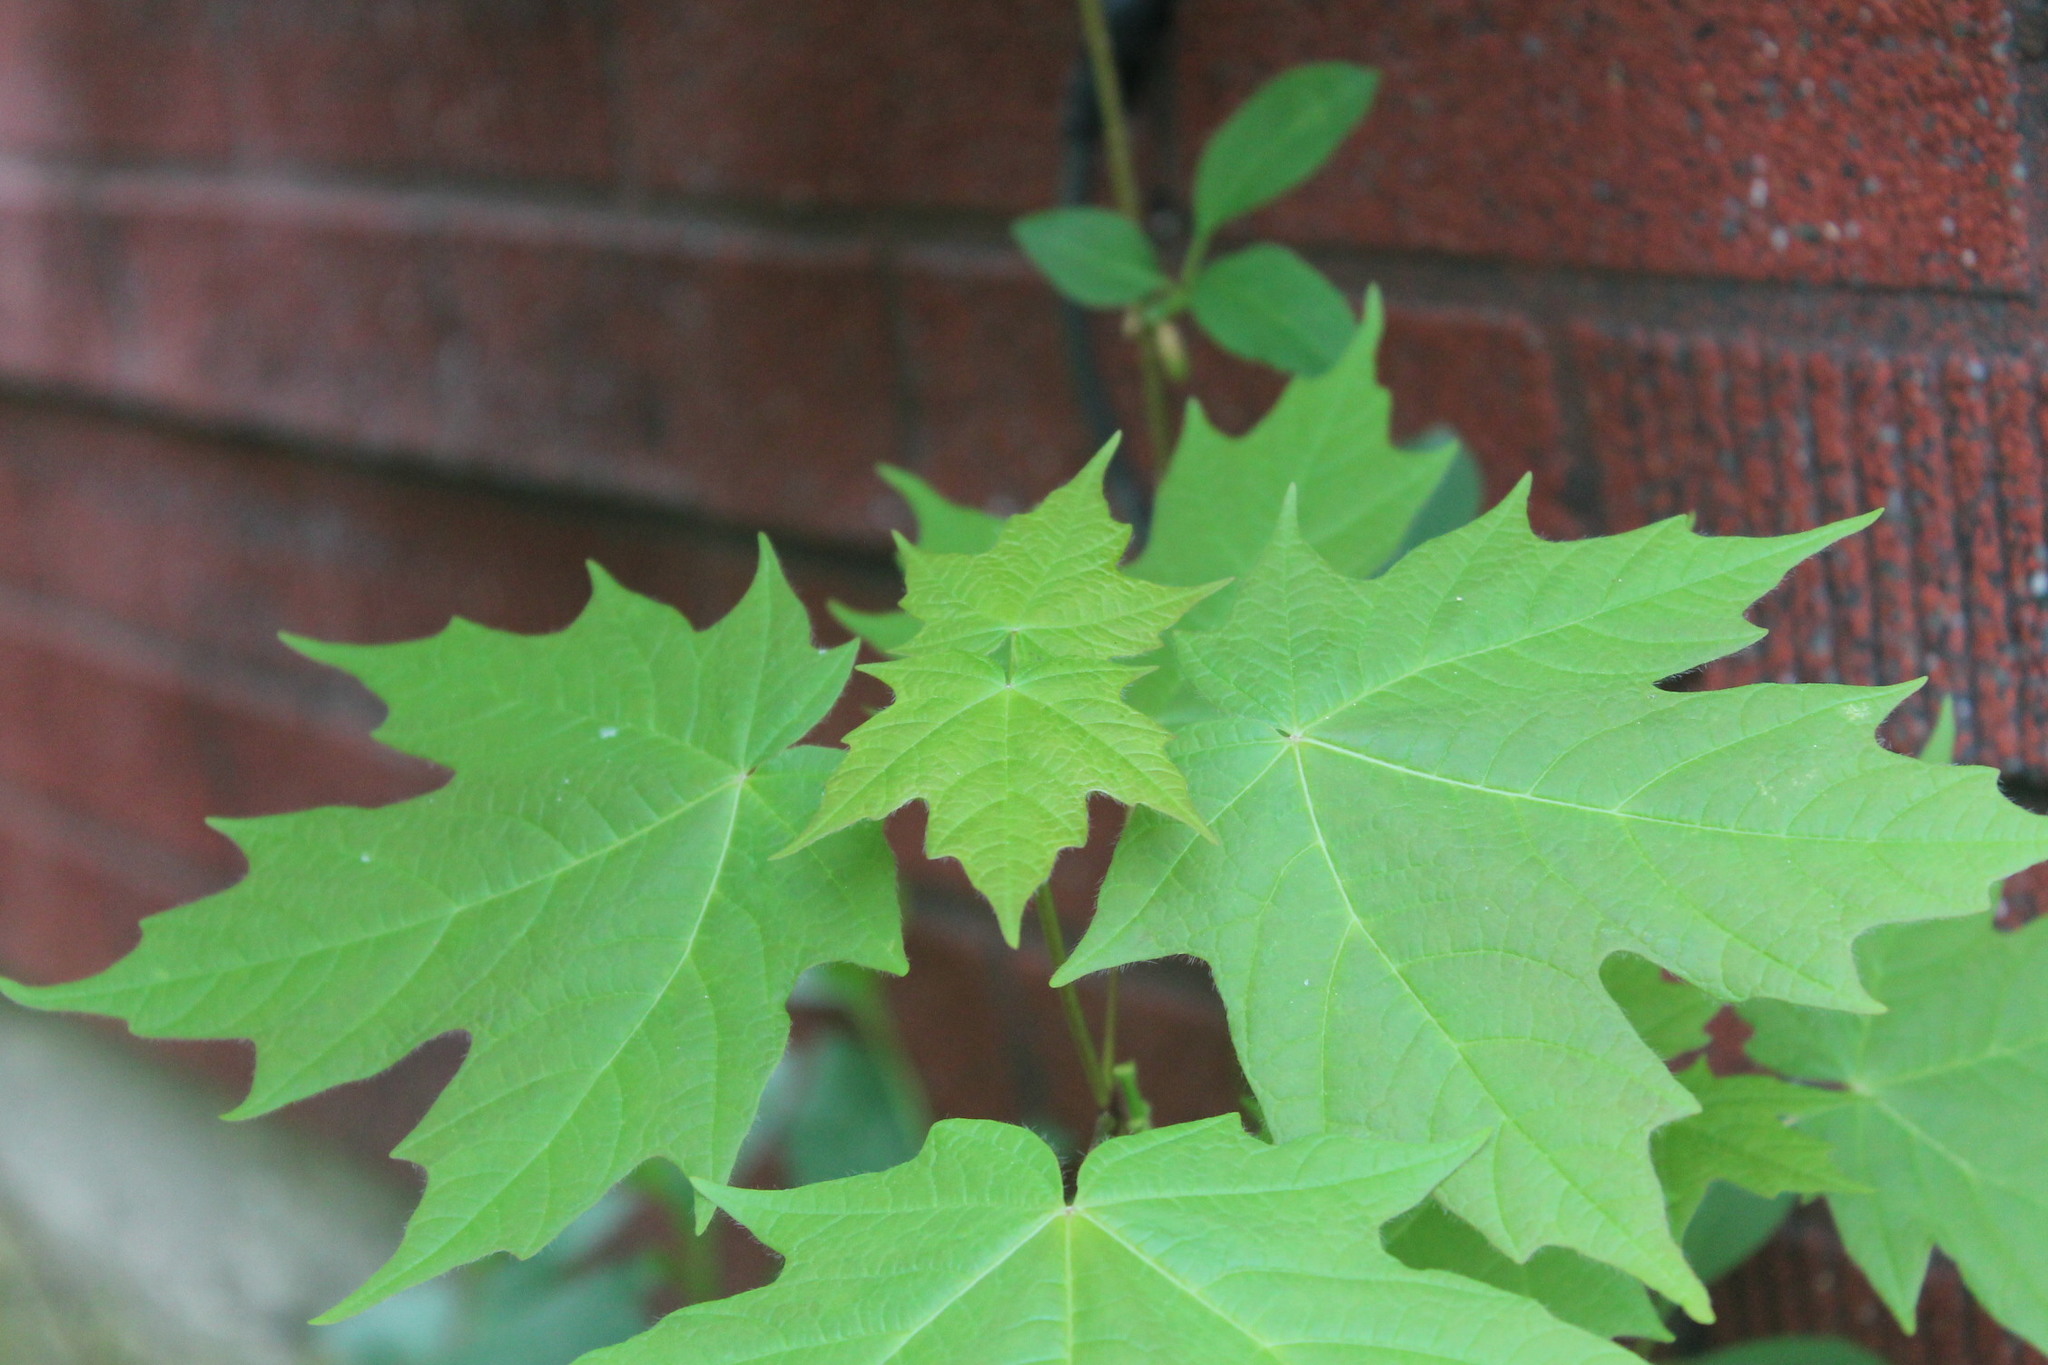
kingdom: Plantae
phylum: Tracheophyta
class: Magnoliopsida
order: Sapindales
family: Sapindaceae
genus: Acer
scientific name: Acer saccharum
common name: Sugar maple
